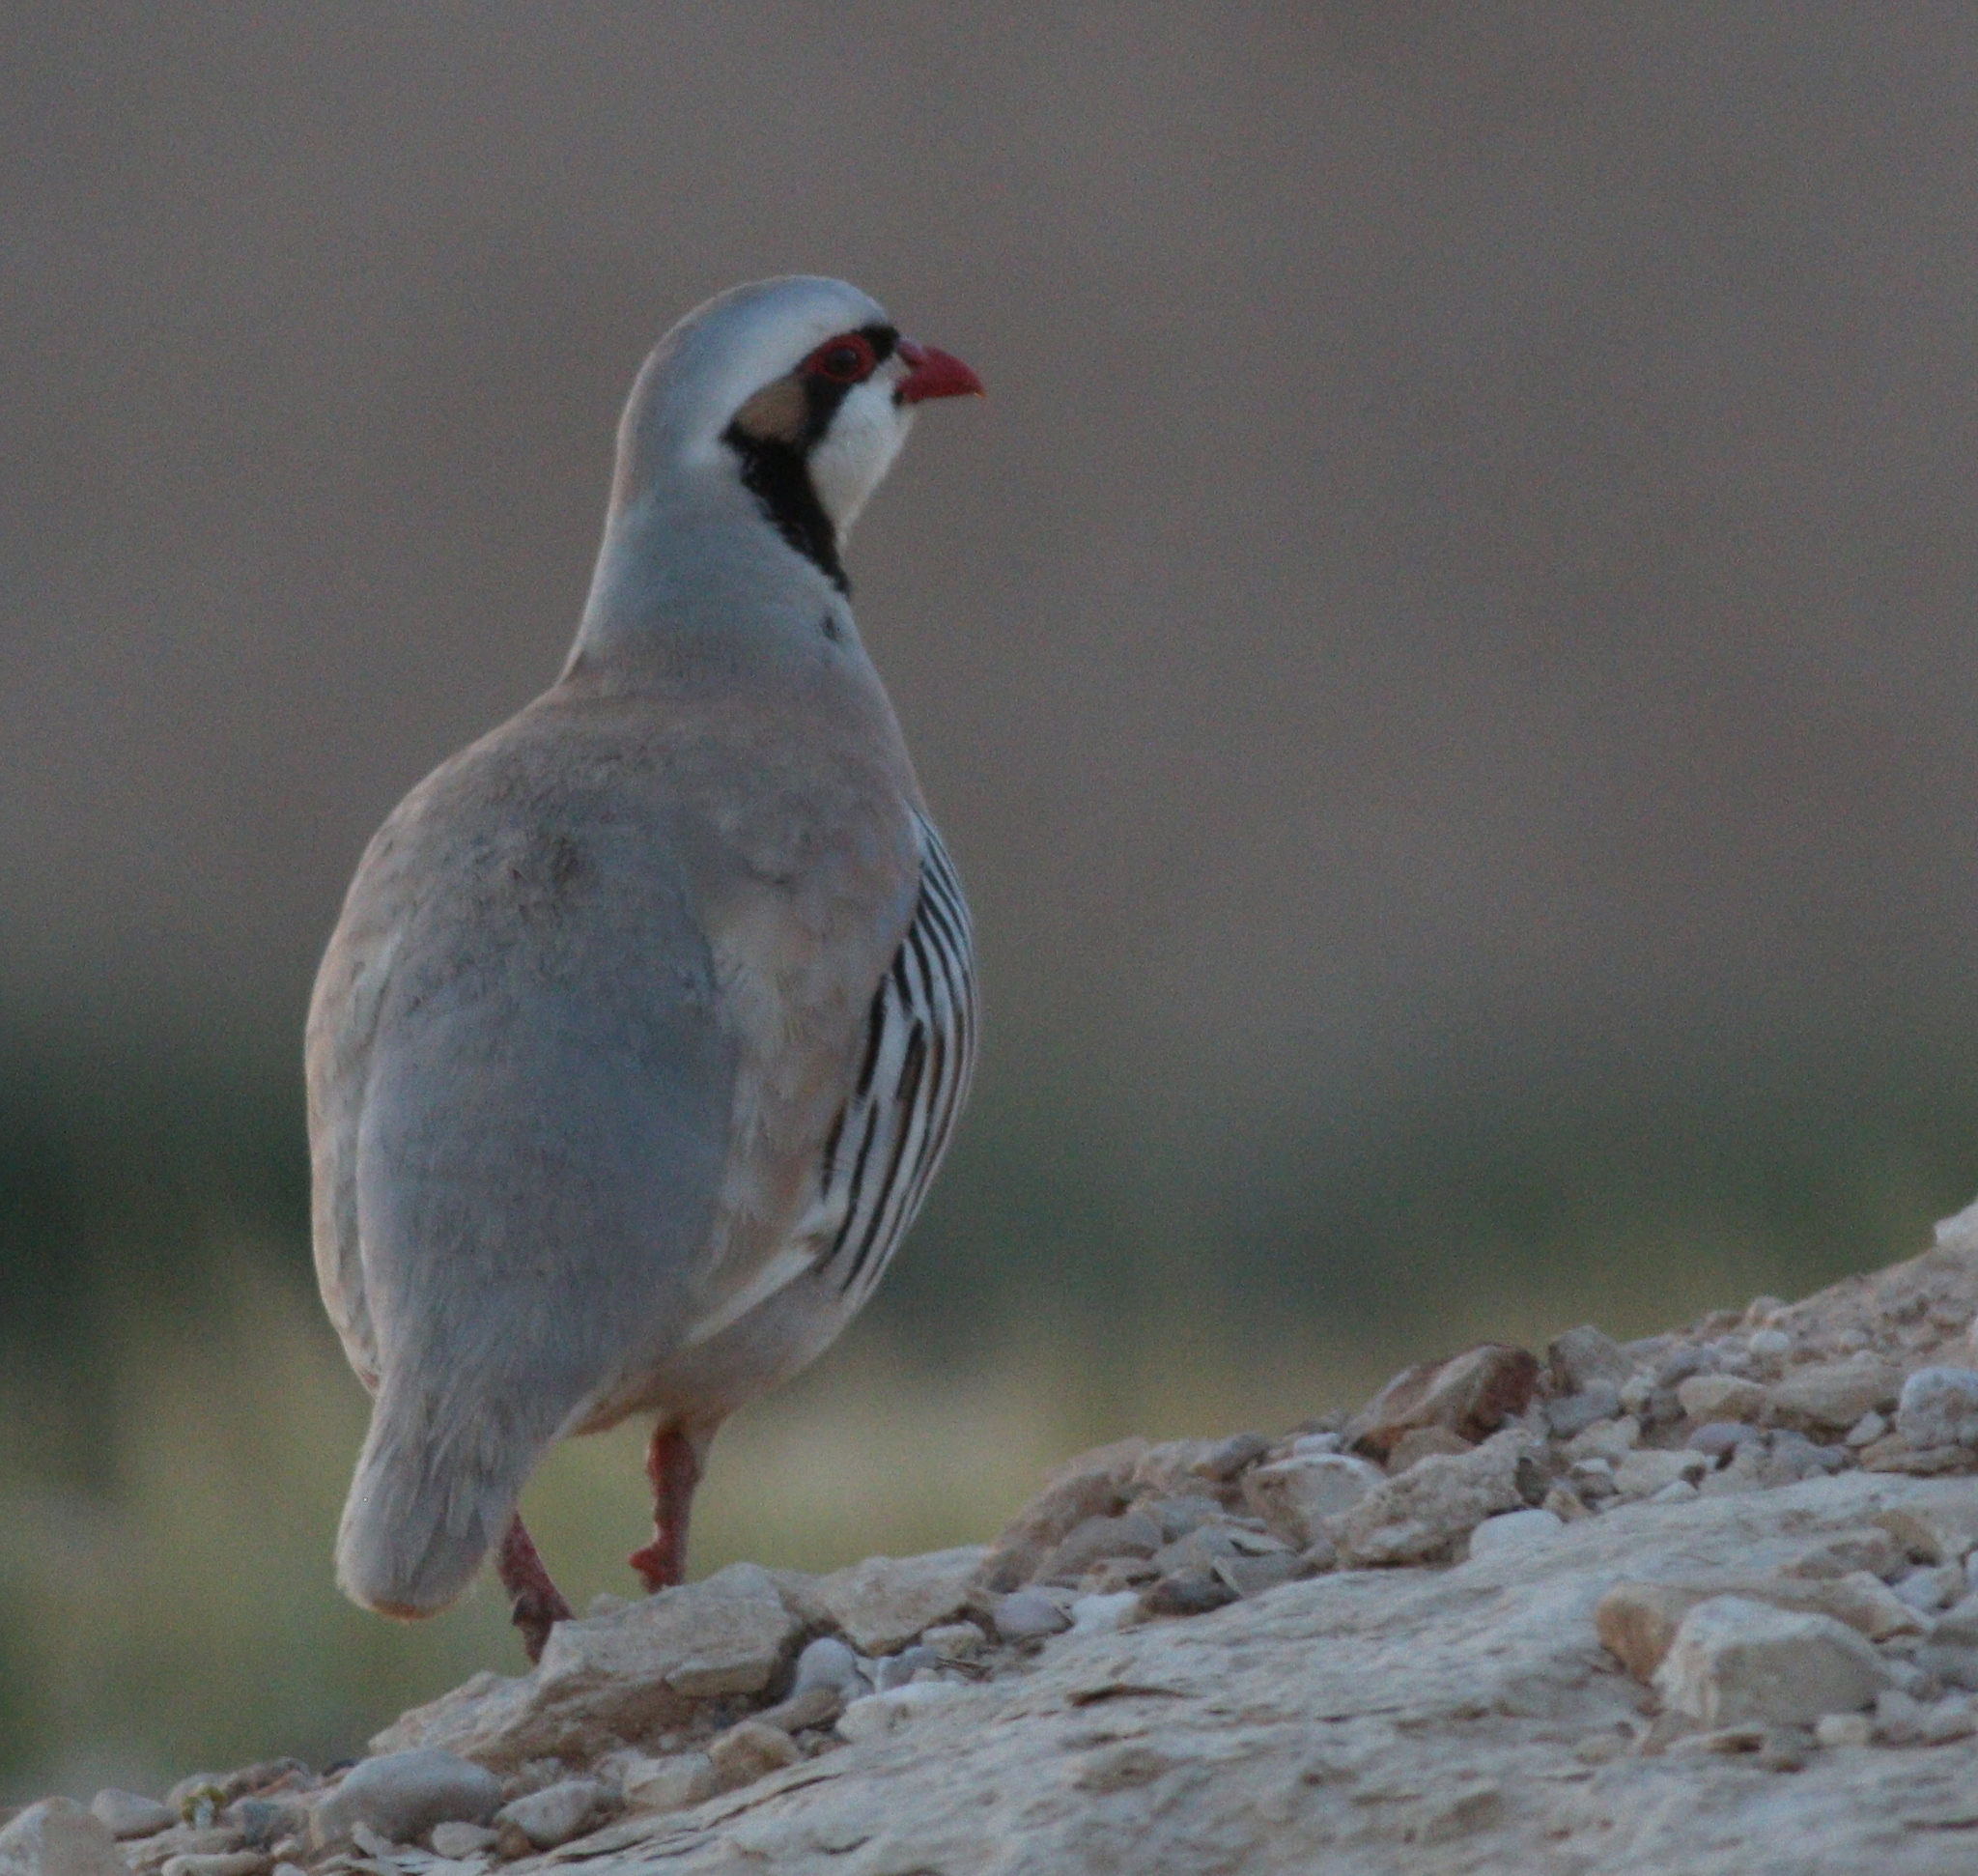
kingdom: Animalia
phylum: Chordata
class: Aves
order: Galliformes
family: Phasianidae
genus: Alectoris
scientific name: Alectoris chukar
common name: Chukar
